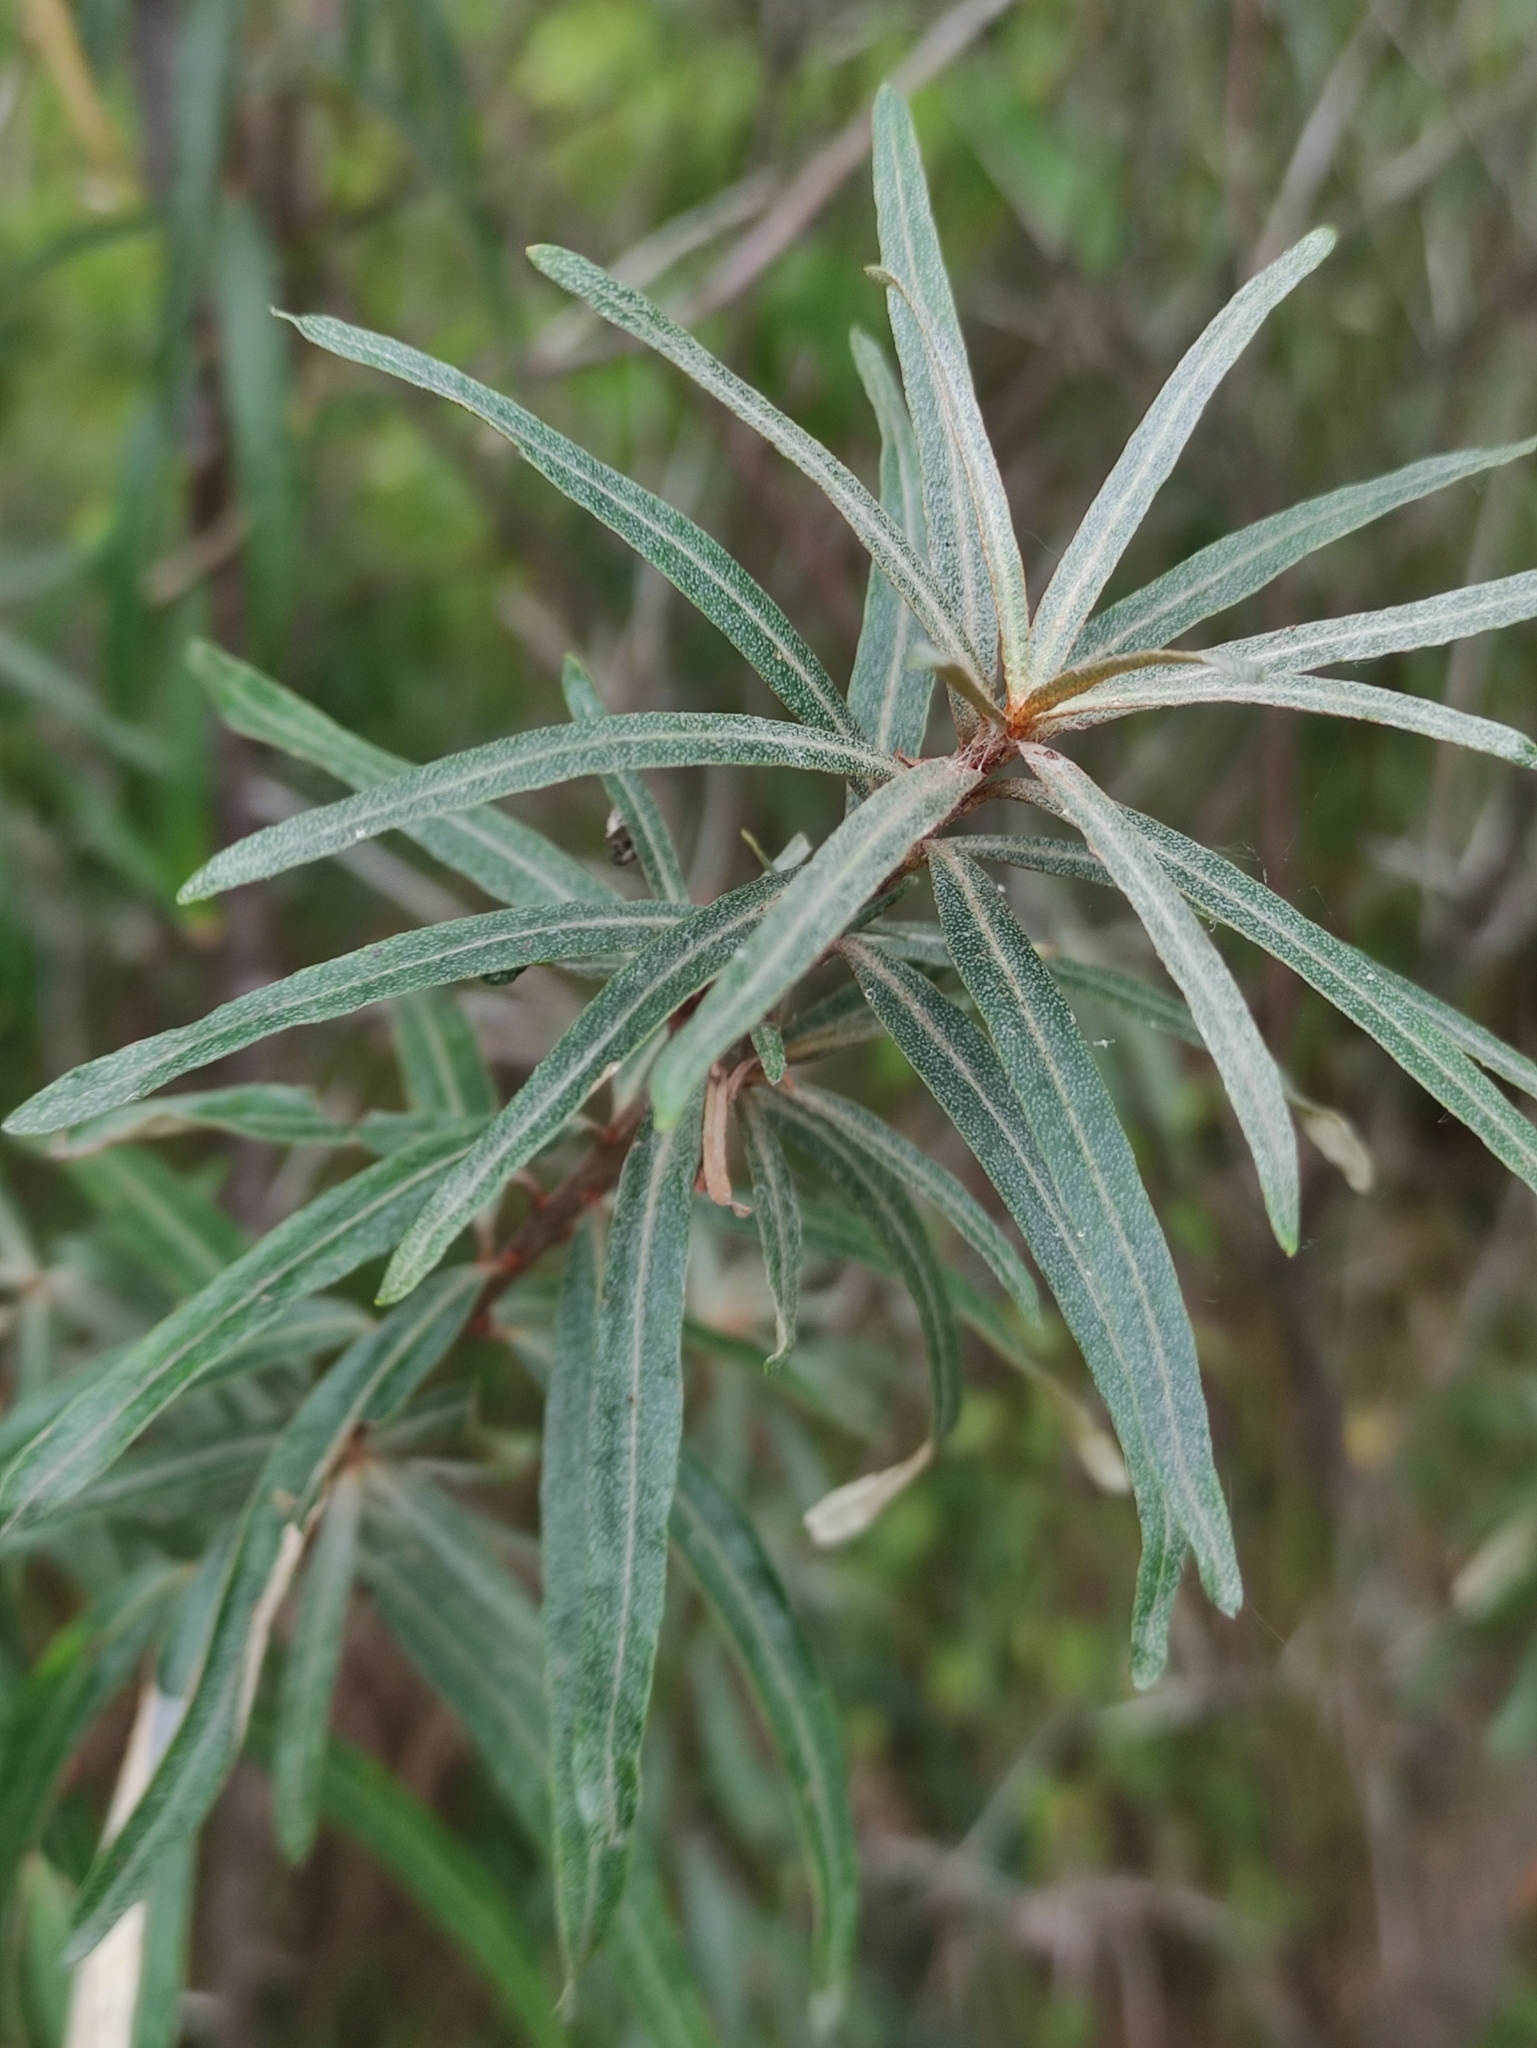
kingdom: Plantae
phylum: Tracheophyta
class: Magnoliopsida
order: Rosales
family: Elaeagnaceae
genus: Hippophae
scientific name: Hippophae rhamnoides
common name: Sea-buckthorn
